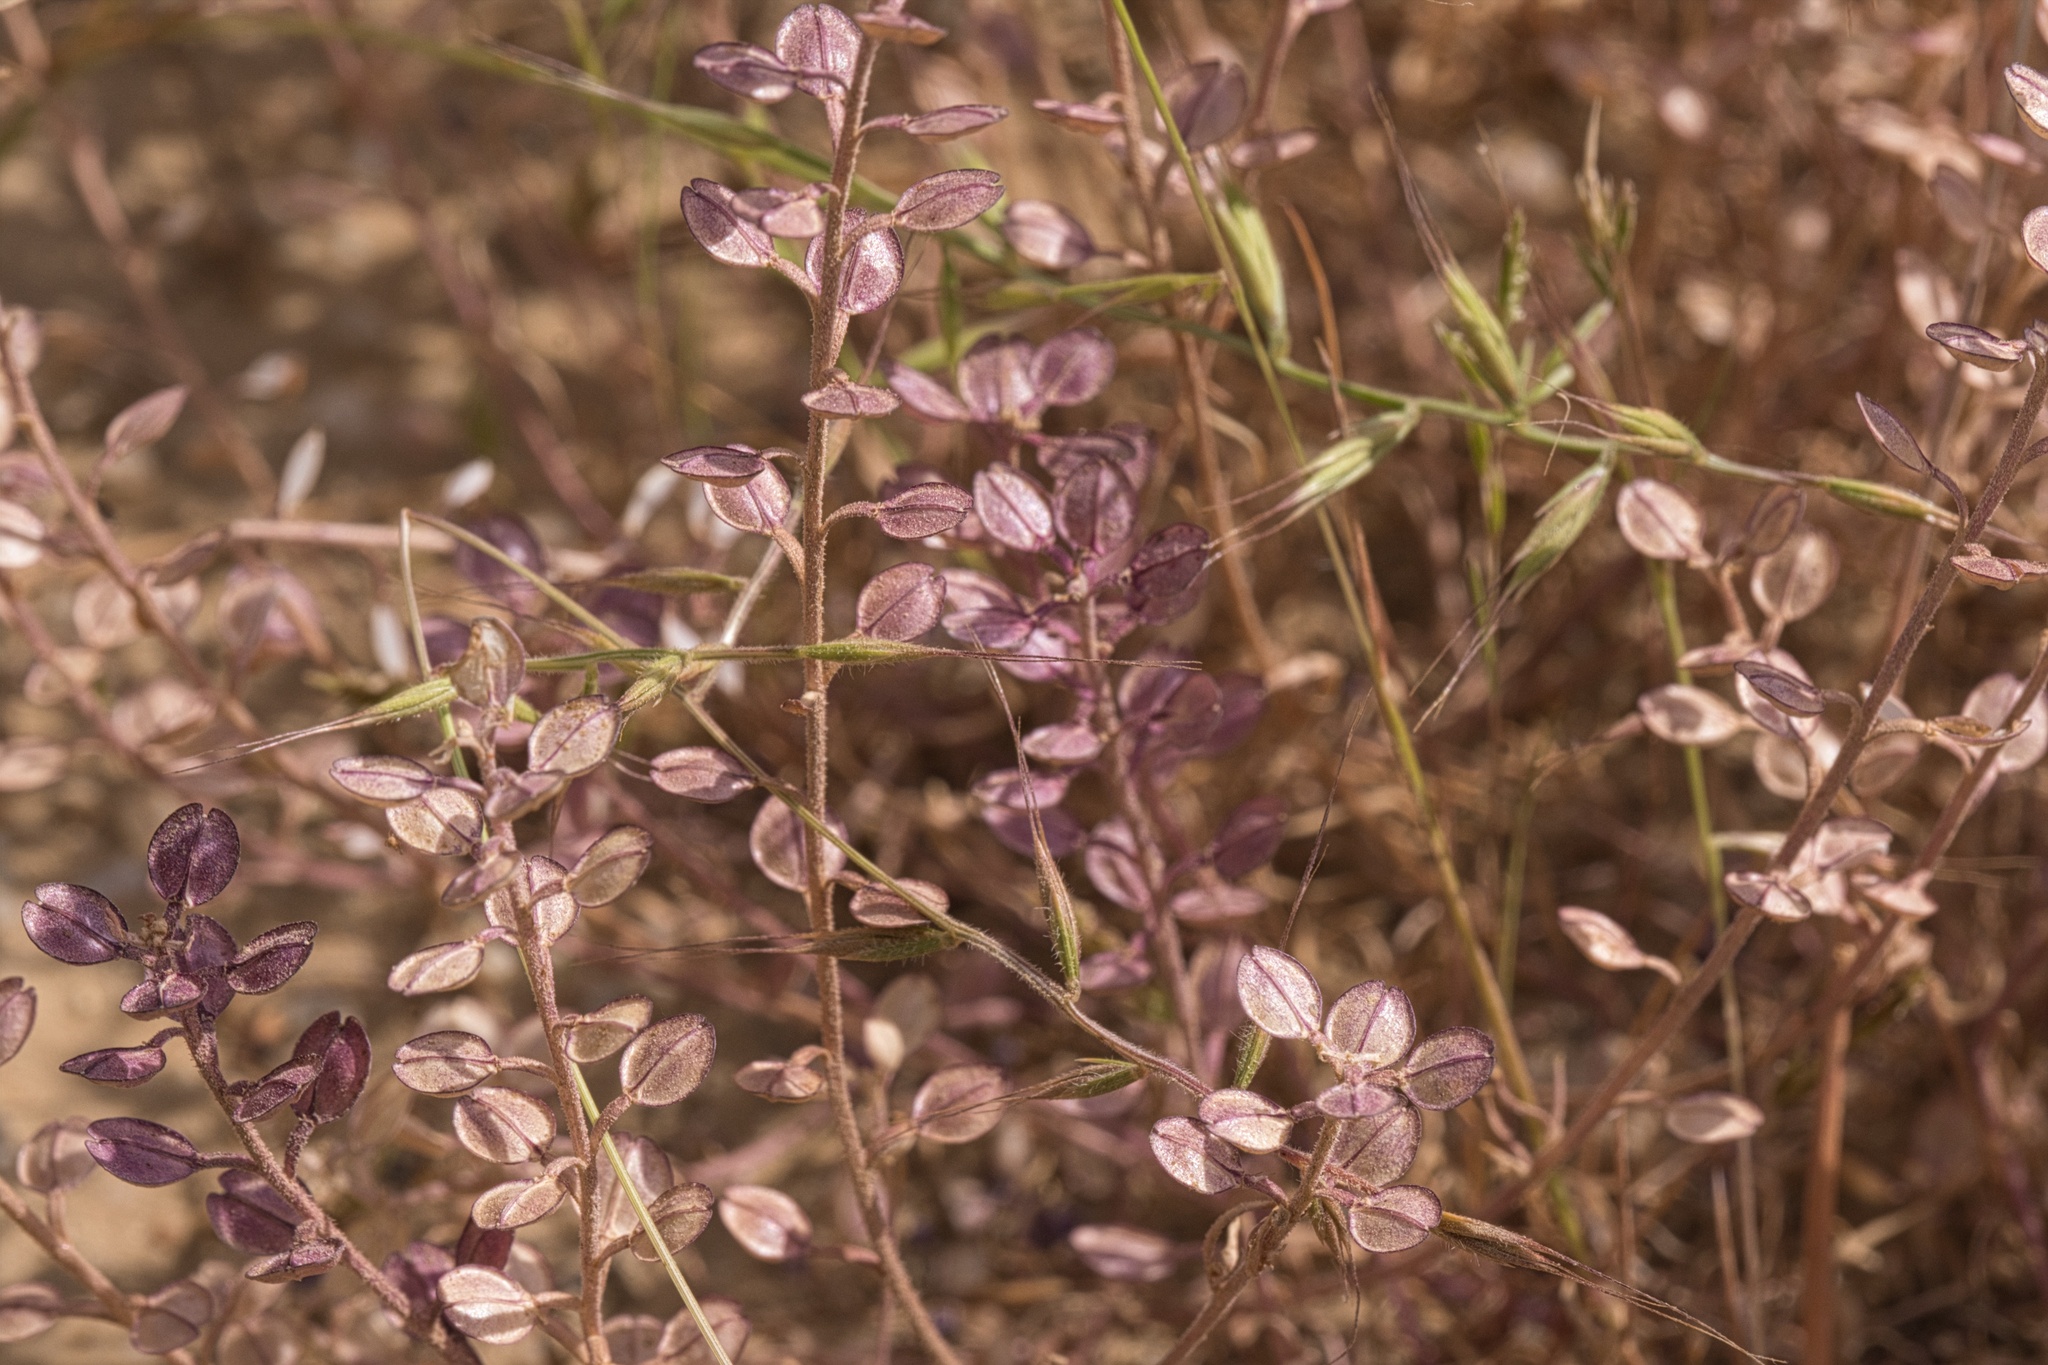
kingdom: Plantae
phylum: Tracheophyta
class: Magnoliopsida
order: Brassicales
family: Brassicaceae
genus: Lepidium
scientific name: Lepidium nitidum
